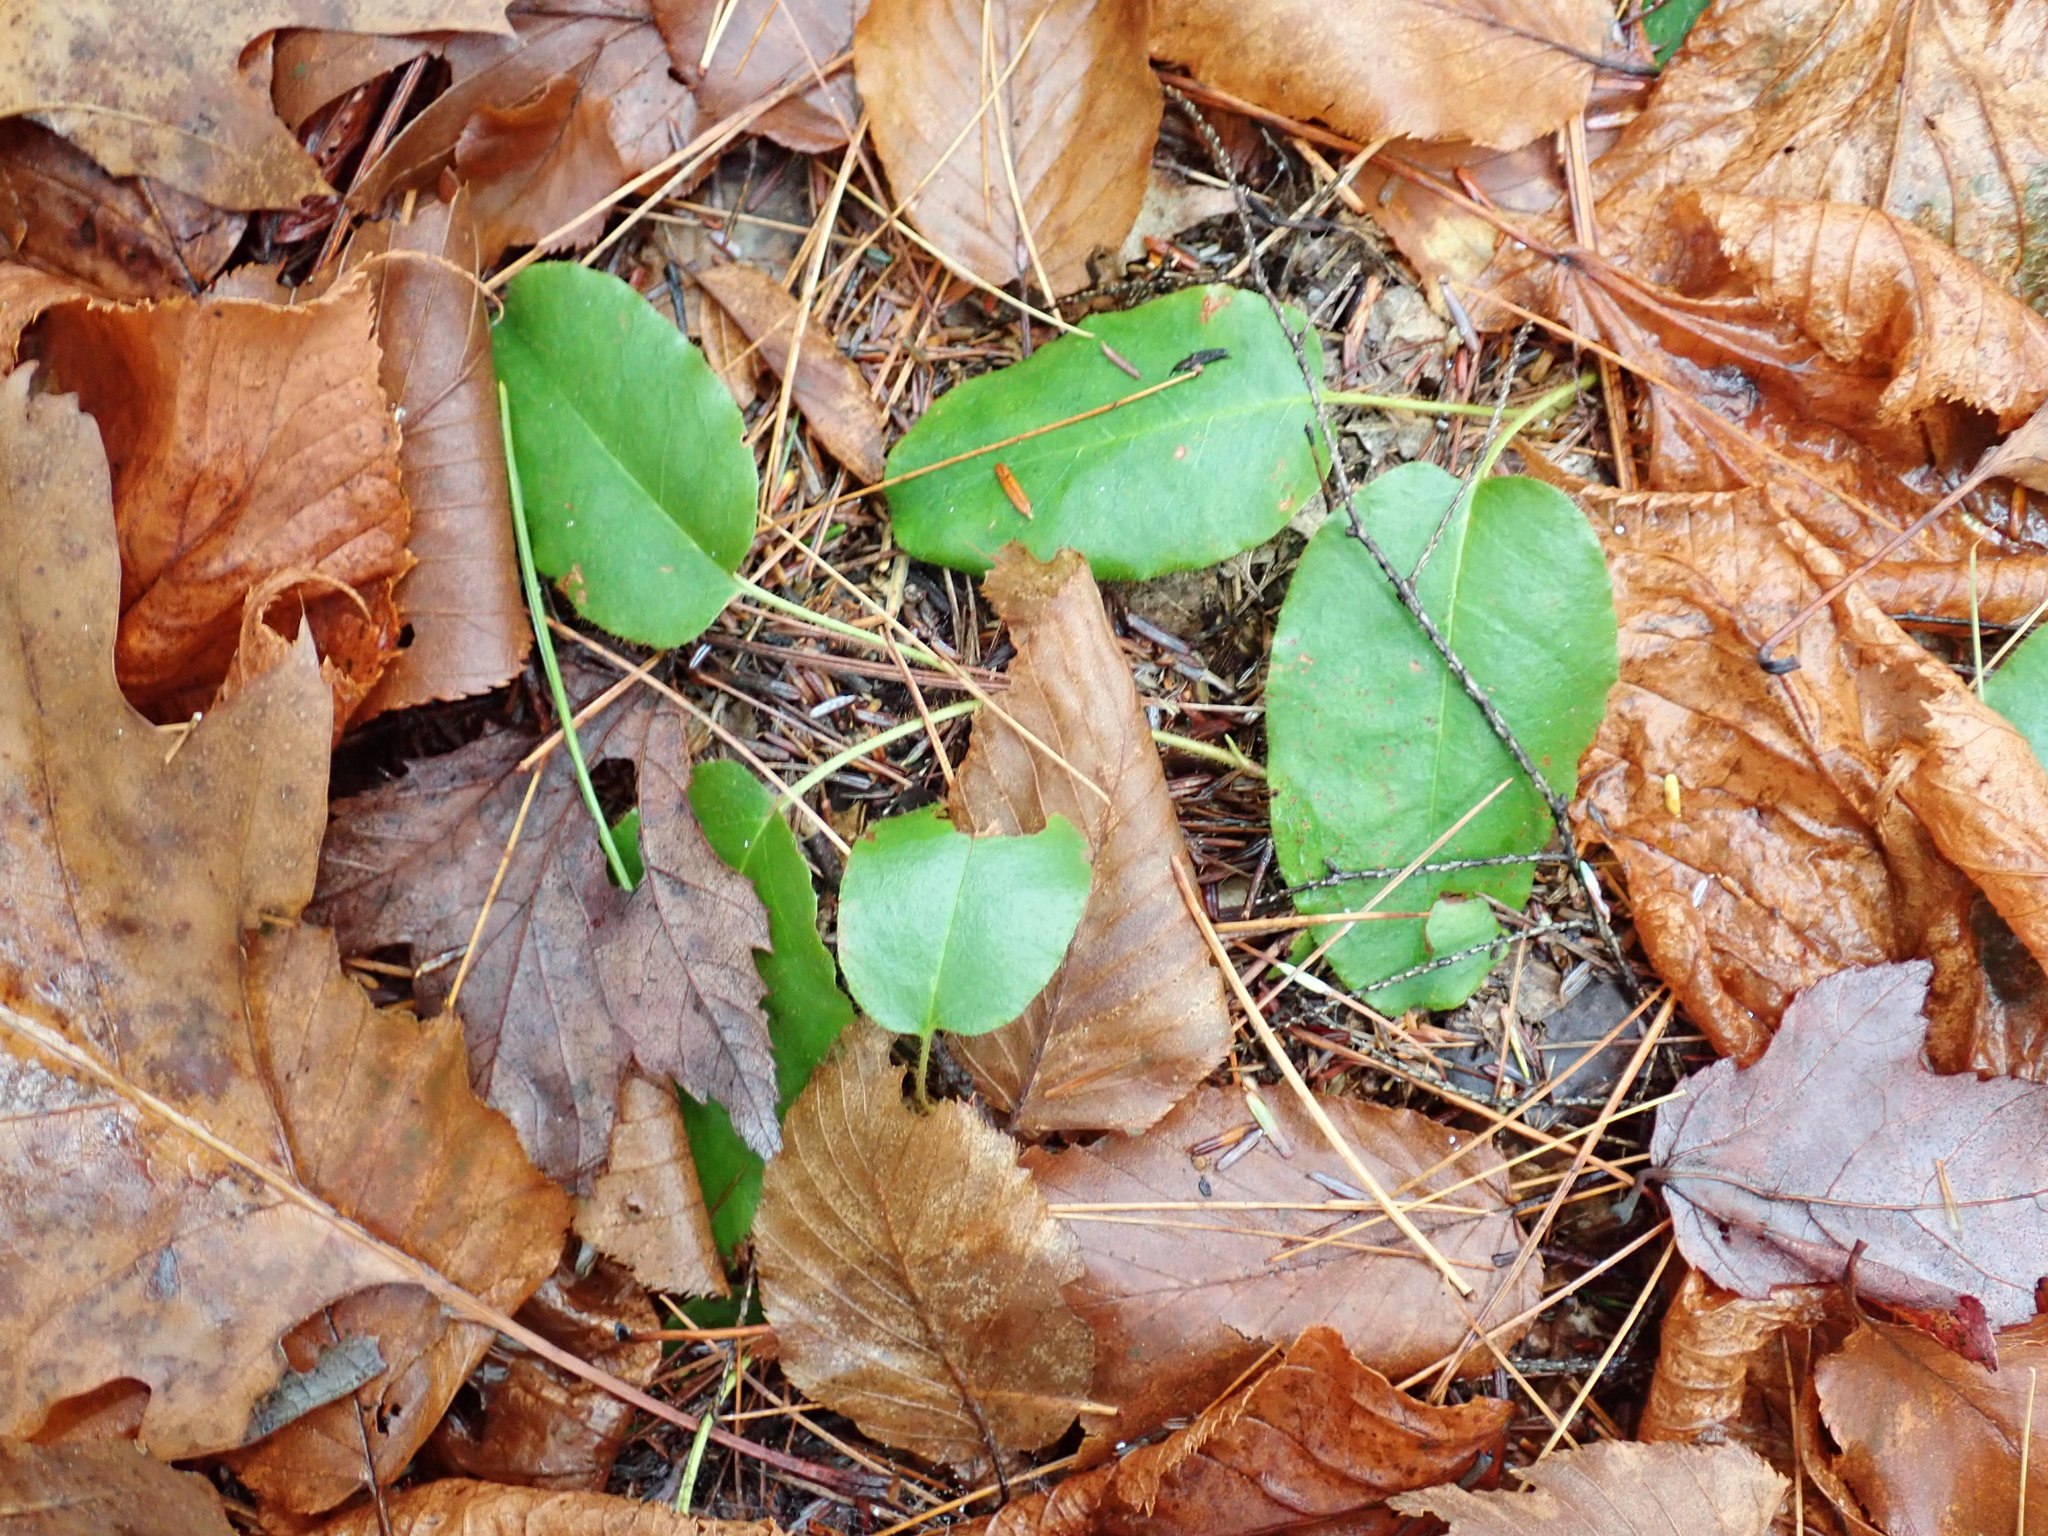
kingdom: Plantae
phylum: Tracheophyta
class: Magnoliopsida
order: Ericales
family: Ericaceae
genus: Epigaea
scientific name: Epigaea repens
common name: Gravelroot
